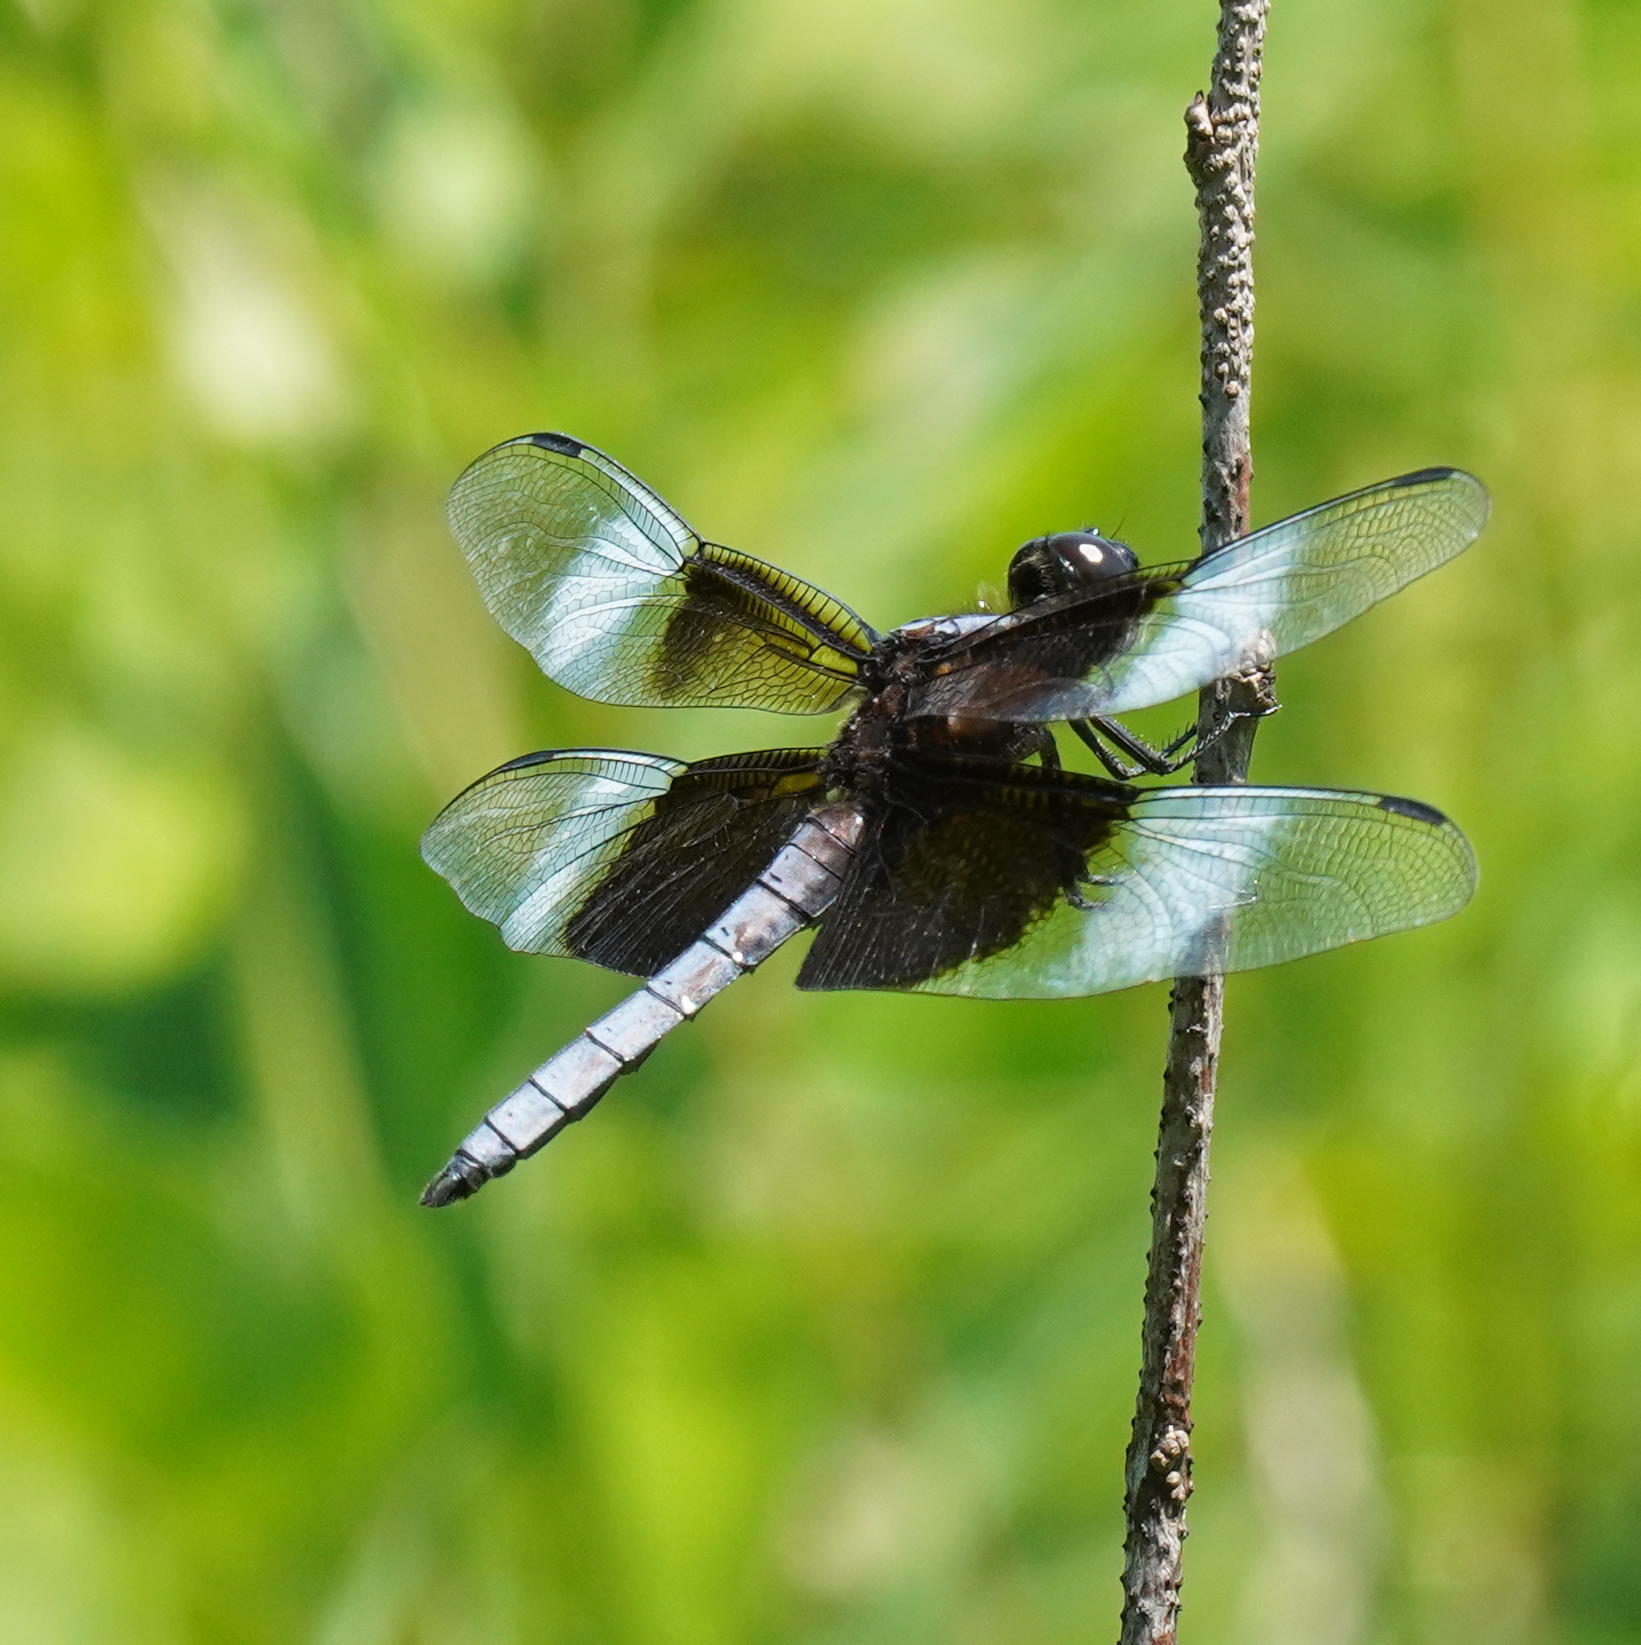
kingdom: Animalia
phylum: Arthropoda
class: Insecta
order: Odonata
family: Libellulidae
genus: Libellula
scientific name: Libellula luctuosa
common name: Widow skimmer
